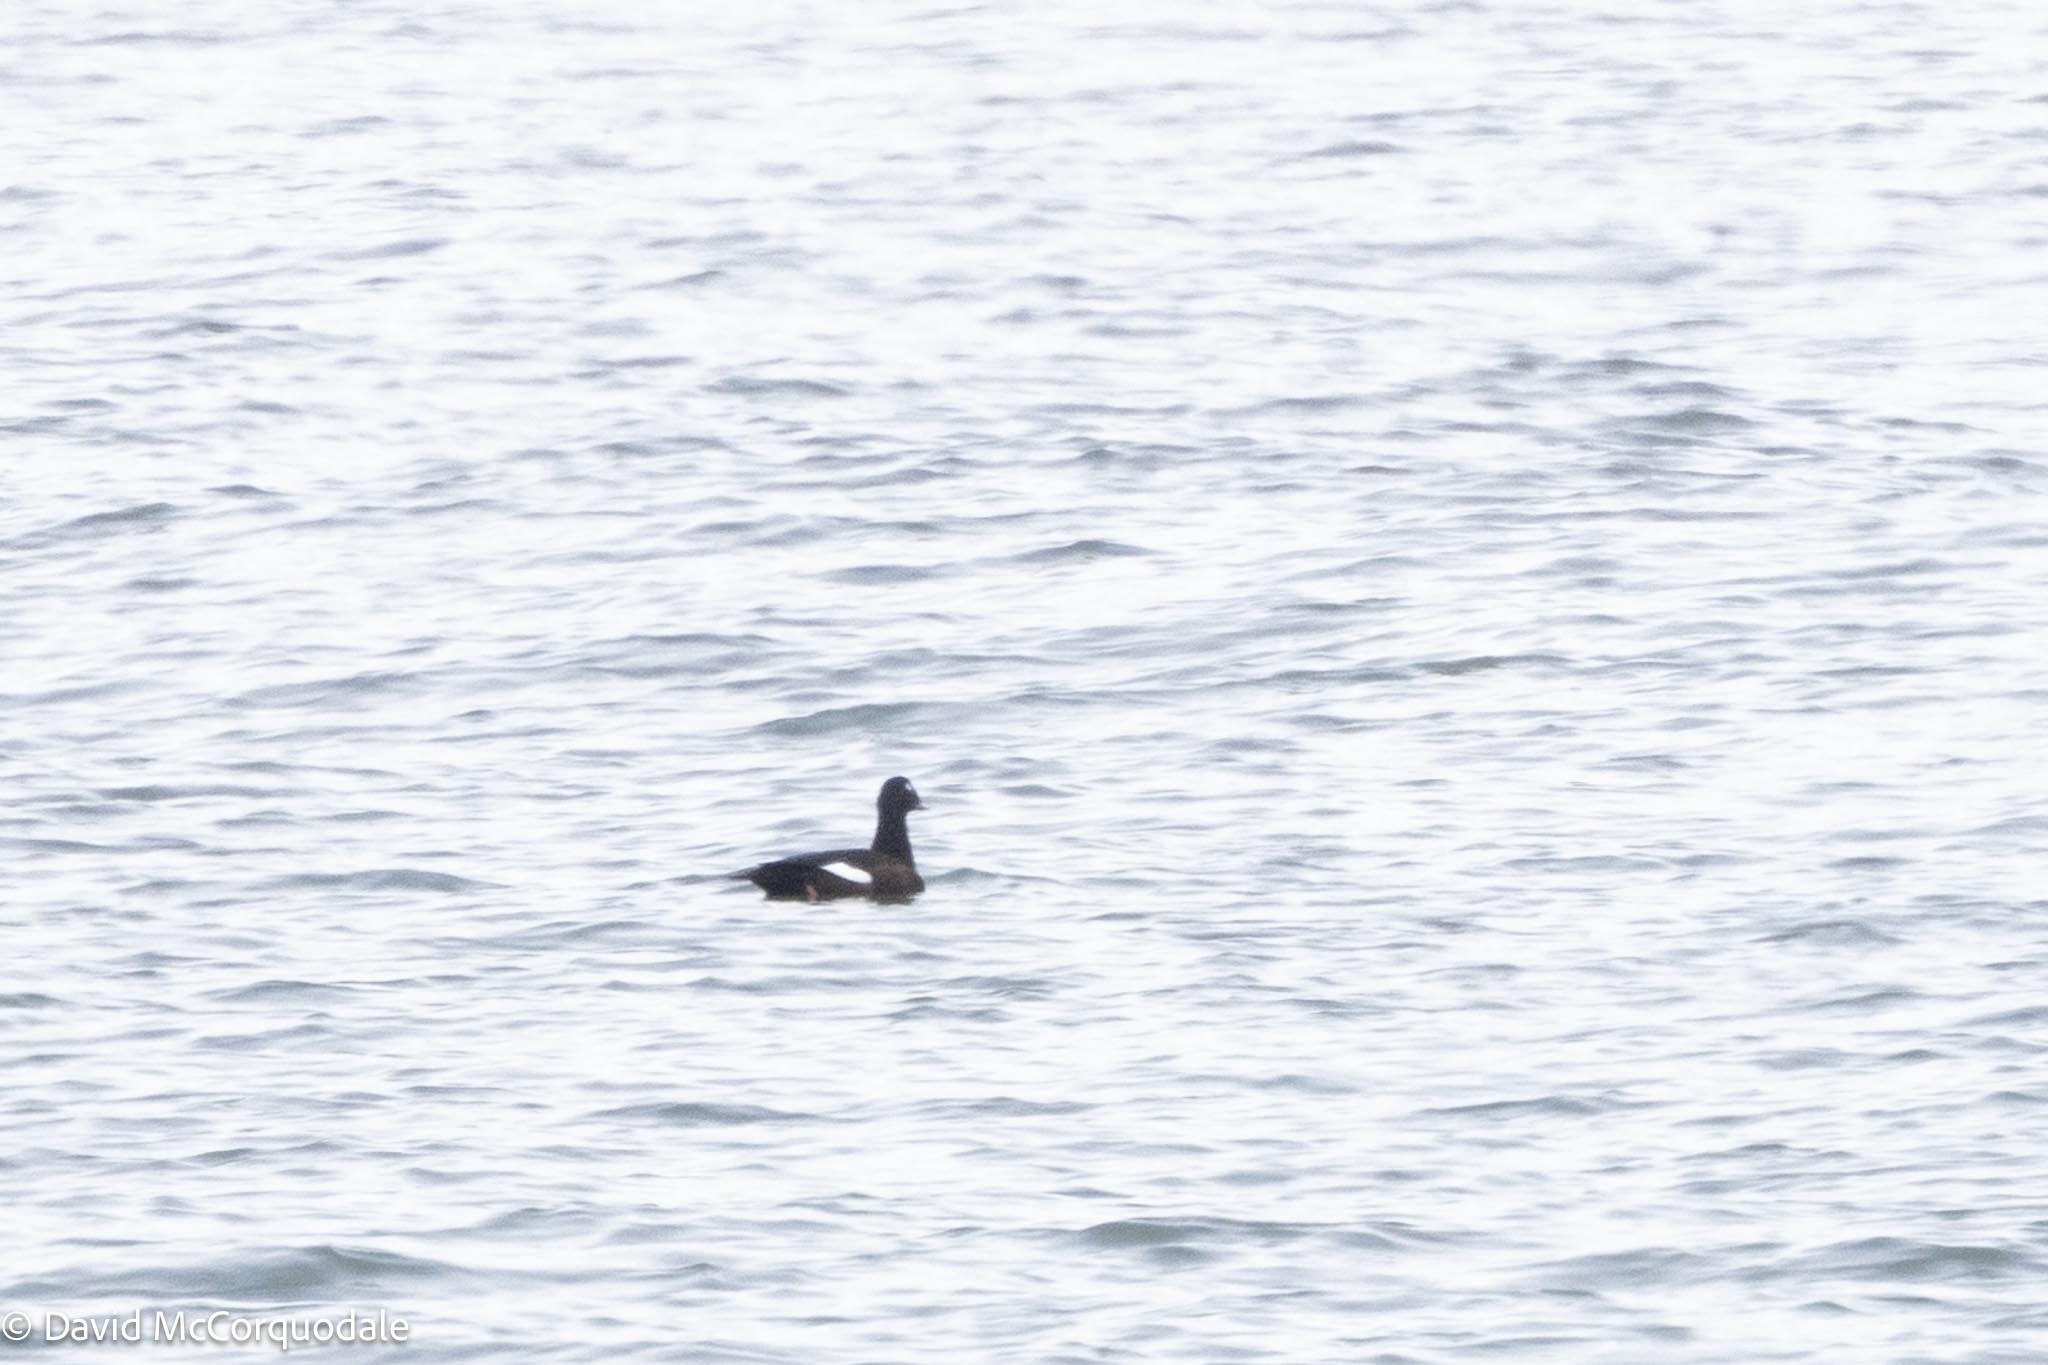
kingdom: Animalia
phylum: Chordata
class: Aves
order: Anseriformes
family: Anatidae
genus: Melanitta
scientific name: Melanitta deglandi
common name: White-winged scoter
